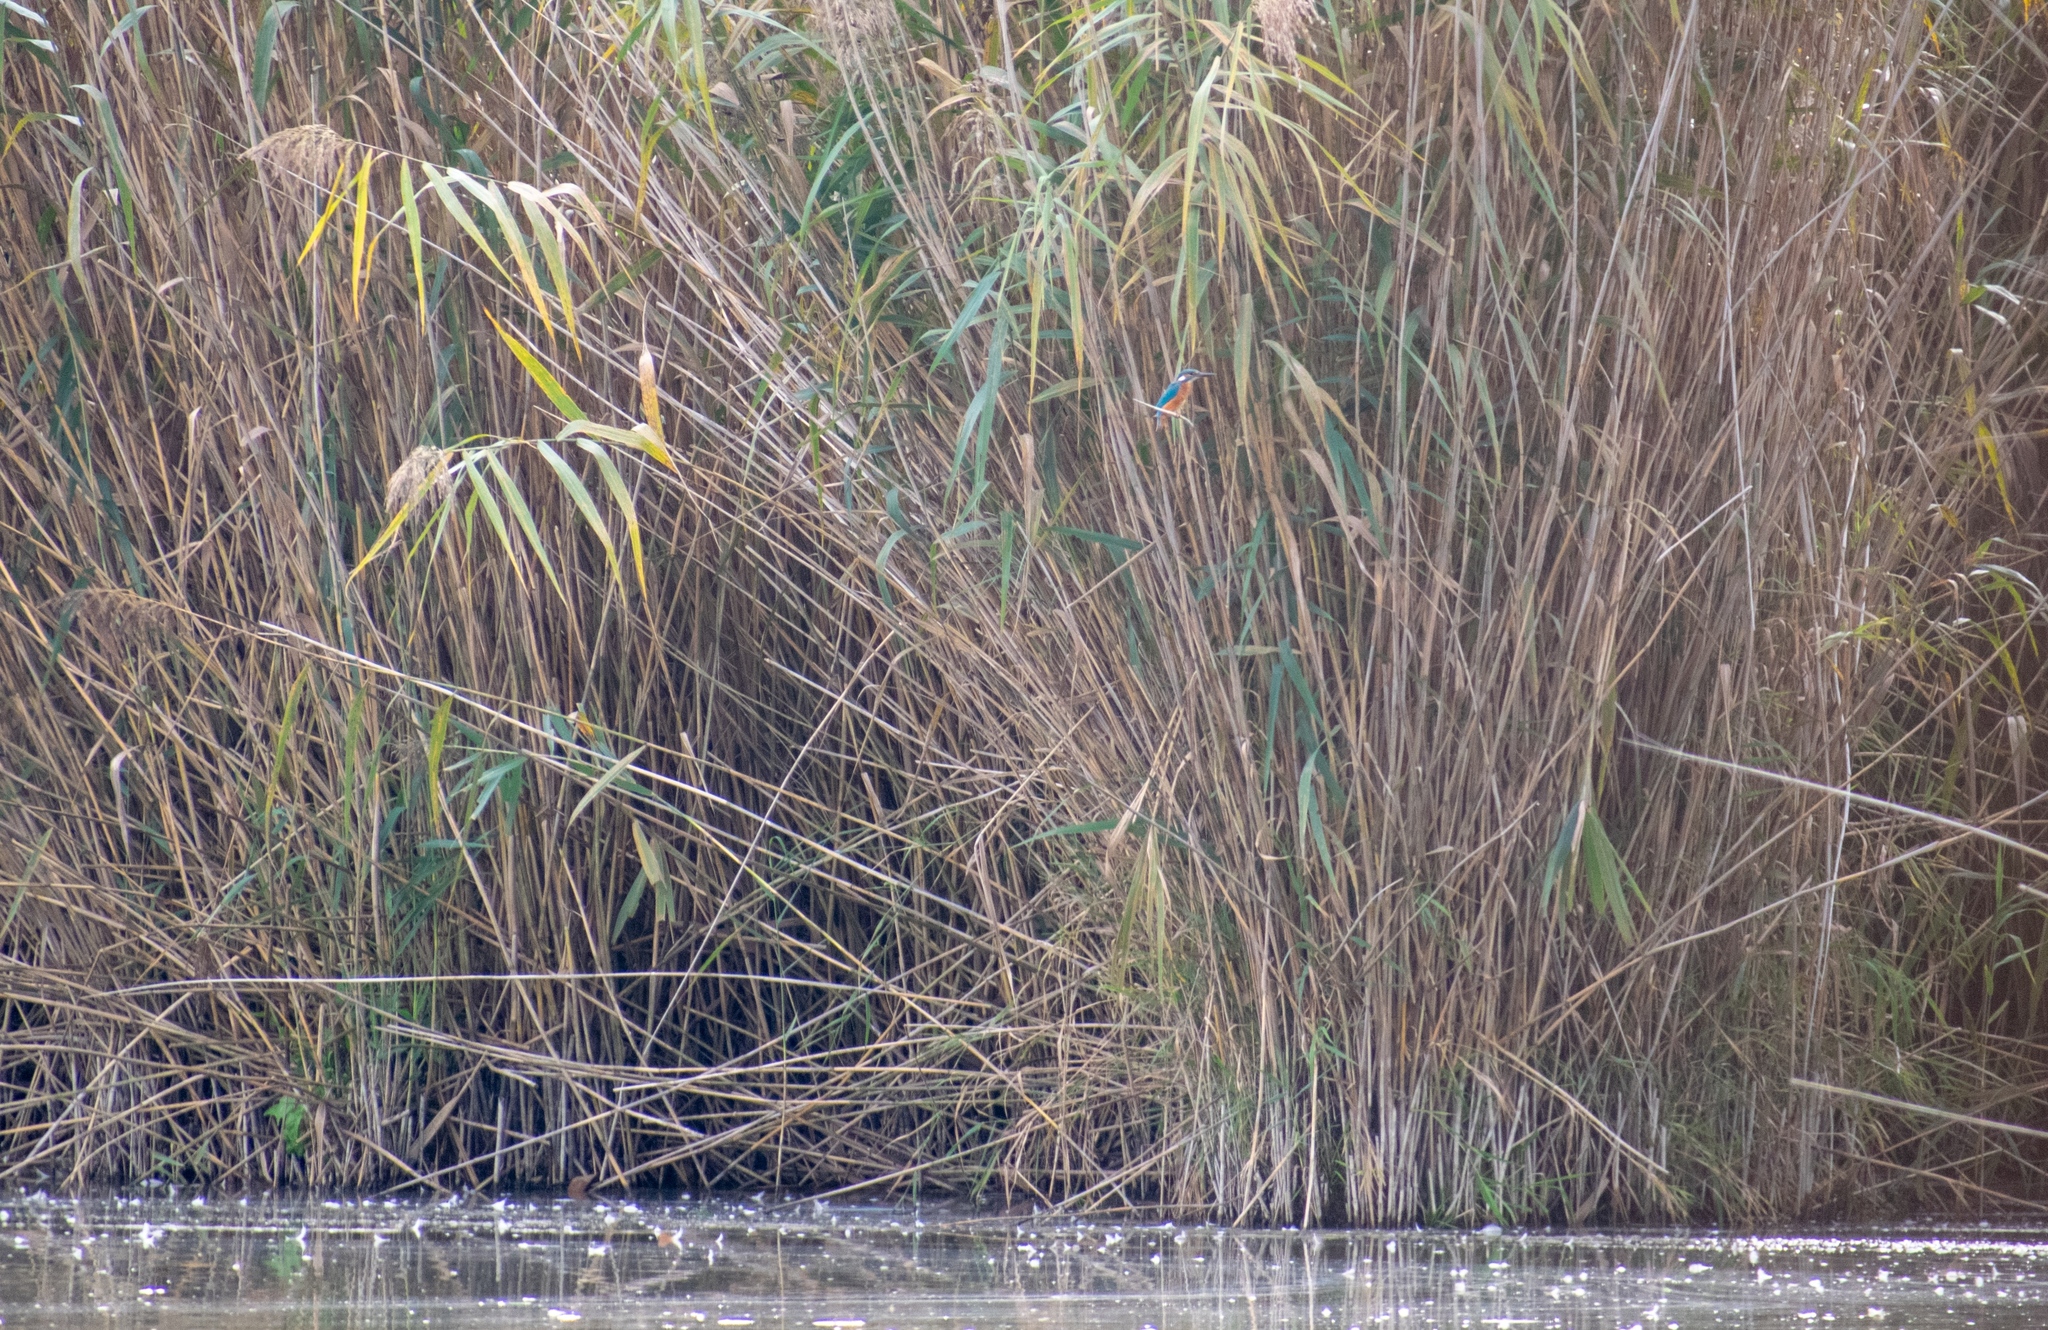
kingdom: Animalia
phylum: Chordata
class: Aves
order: Coraciiformes
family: Alcedinidae
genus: Alcedo
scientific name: Alcedo atthis
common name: Common kingfisher
